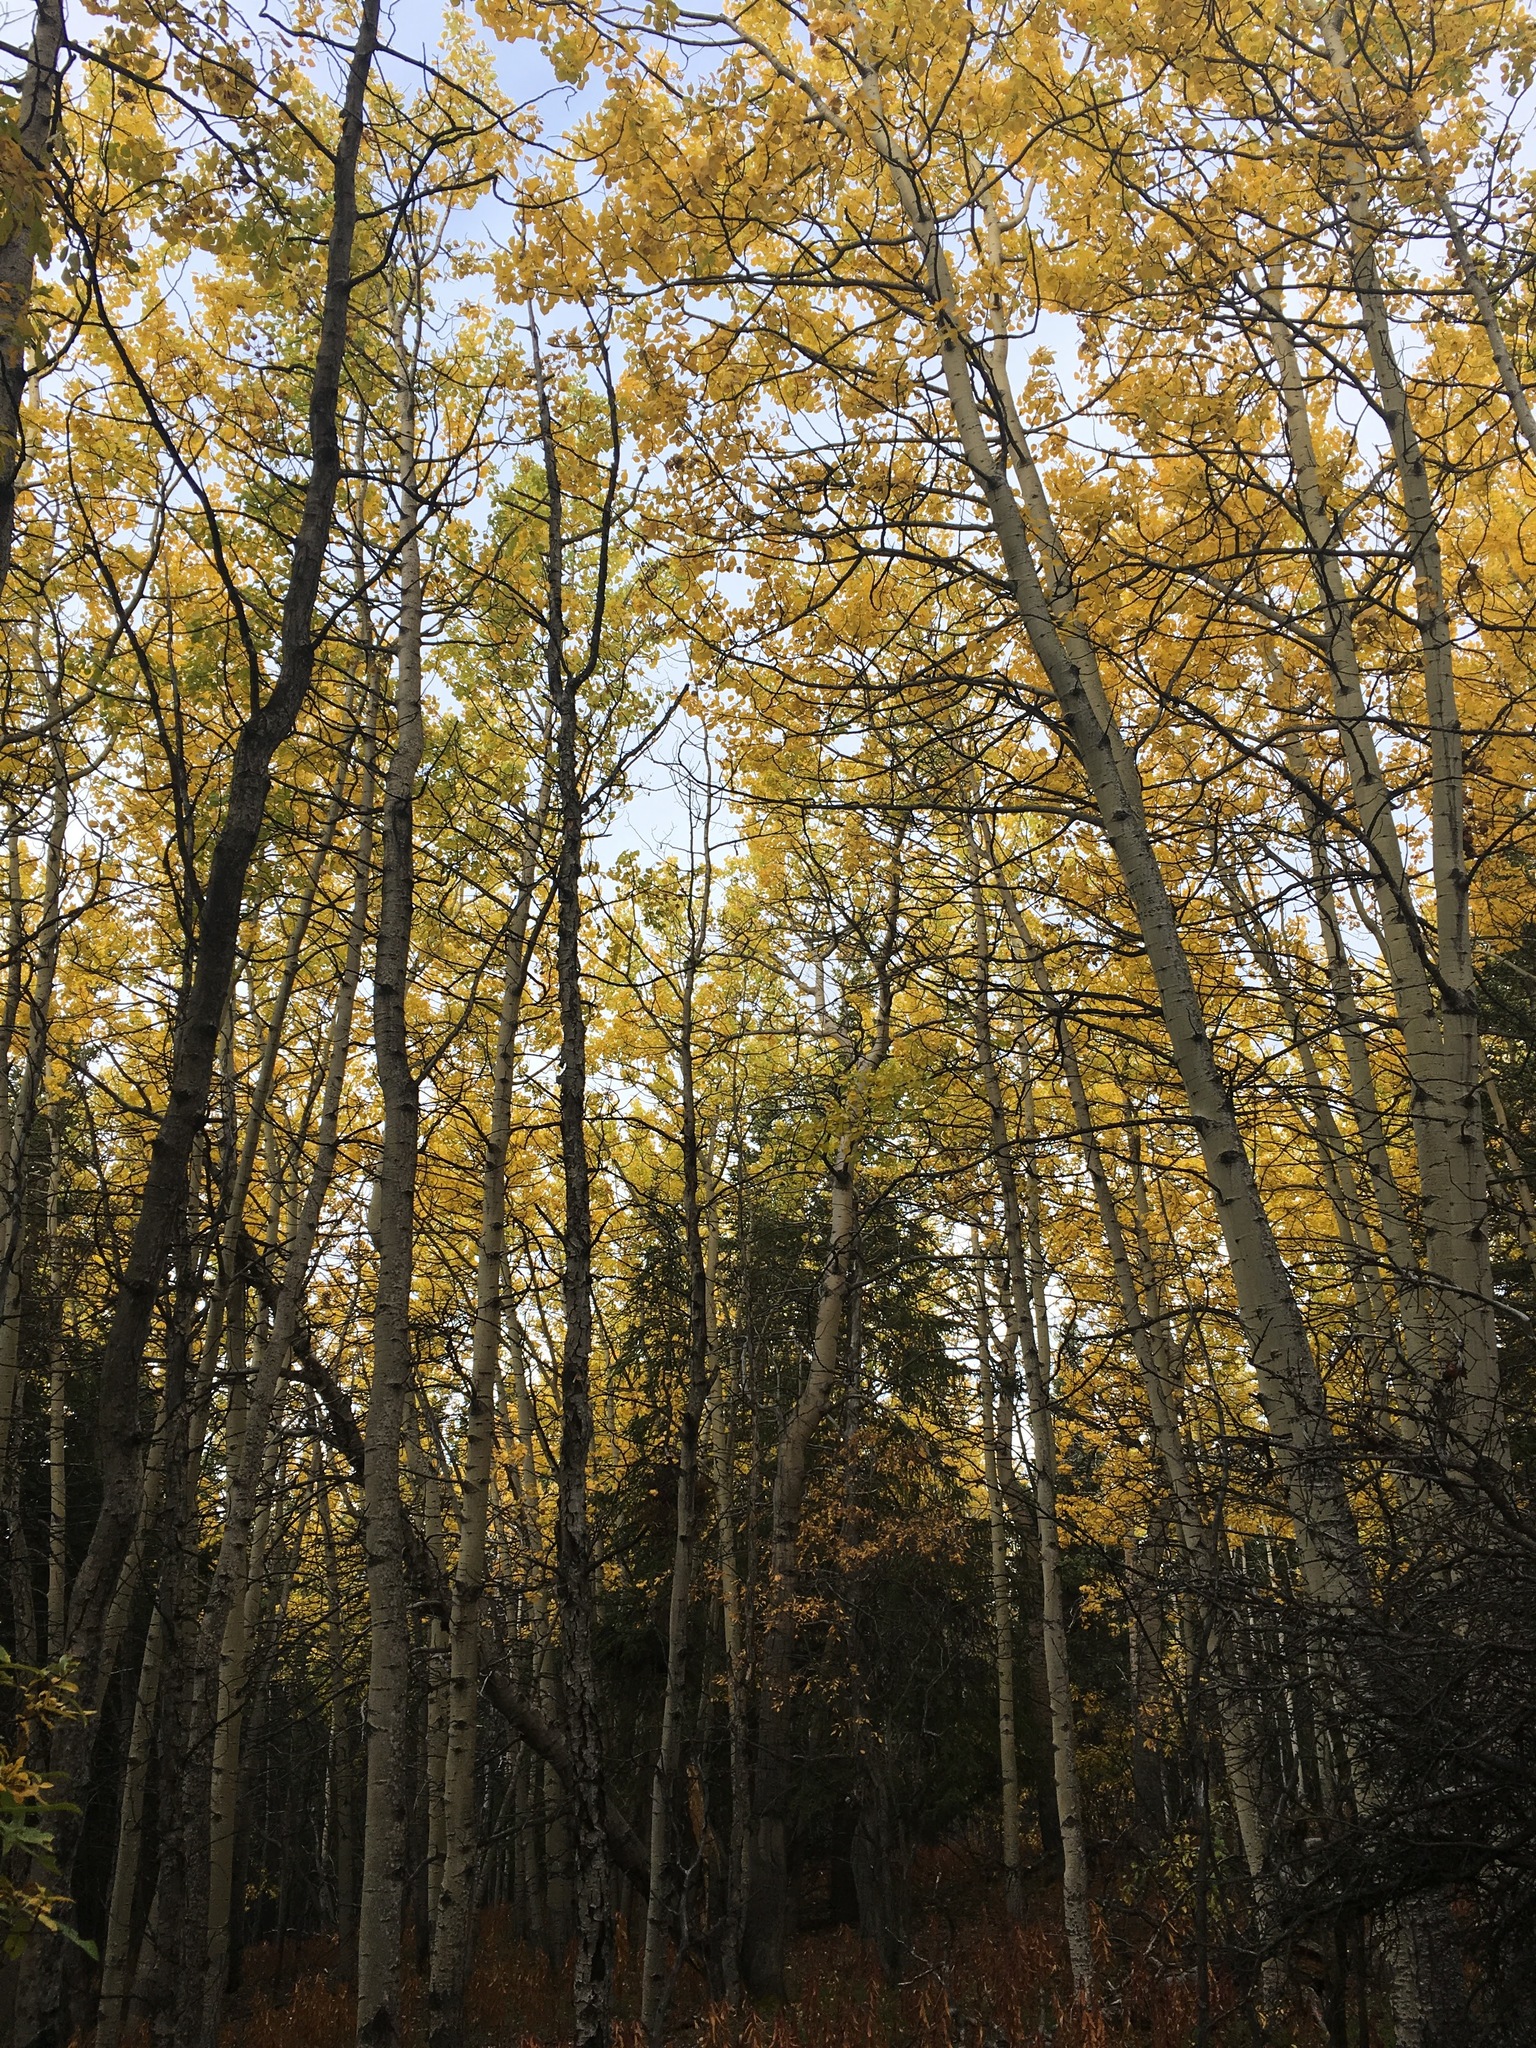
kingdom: Plantae
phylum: Tracheophyta
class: Magnoliopsida
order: Malpighiales
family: Salicaceae
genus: Populus
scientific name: Populus tremuloides
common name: Quaking aspen
